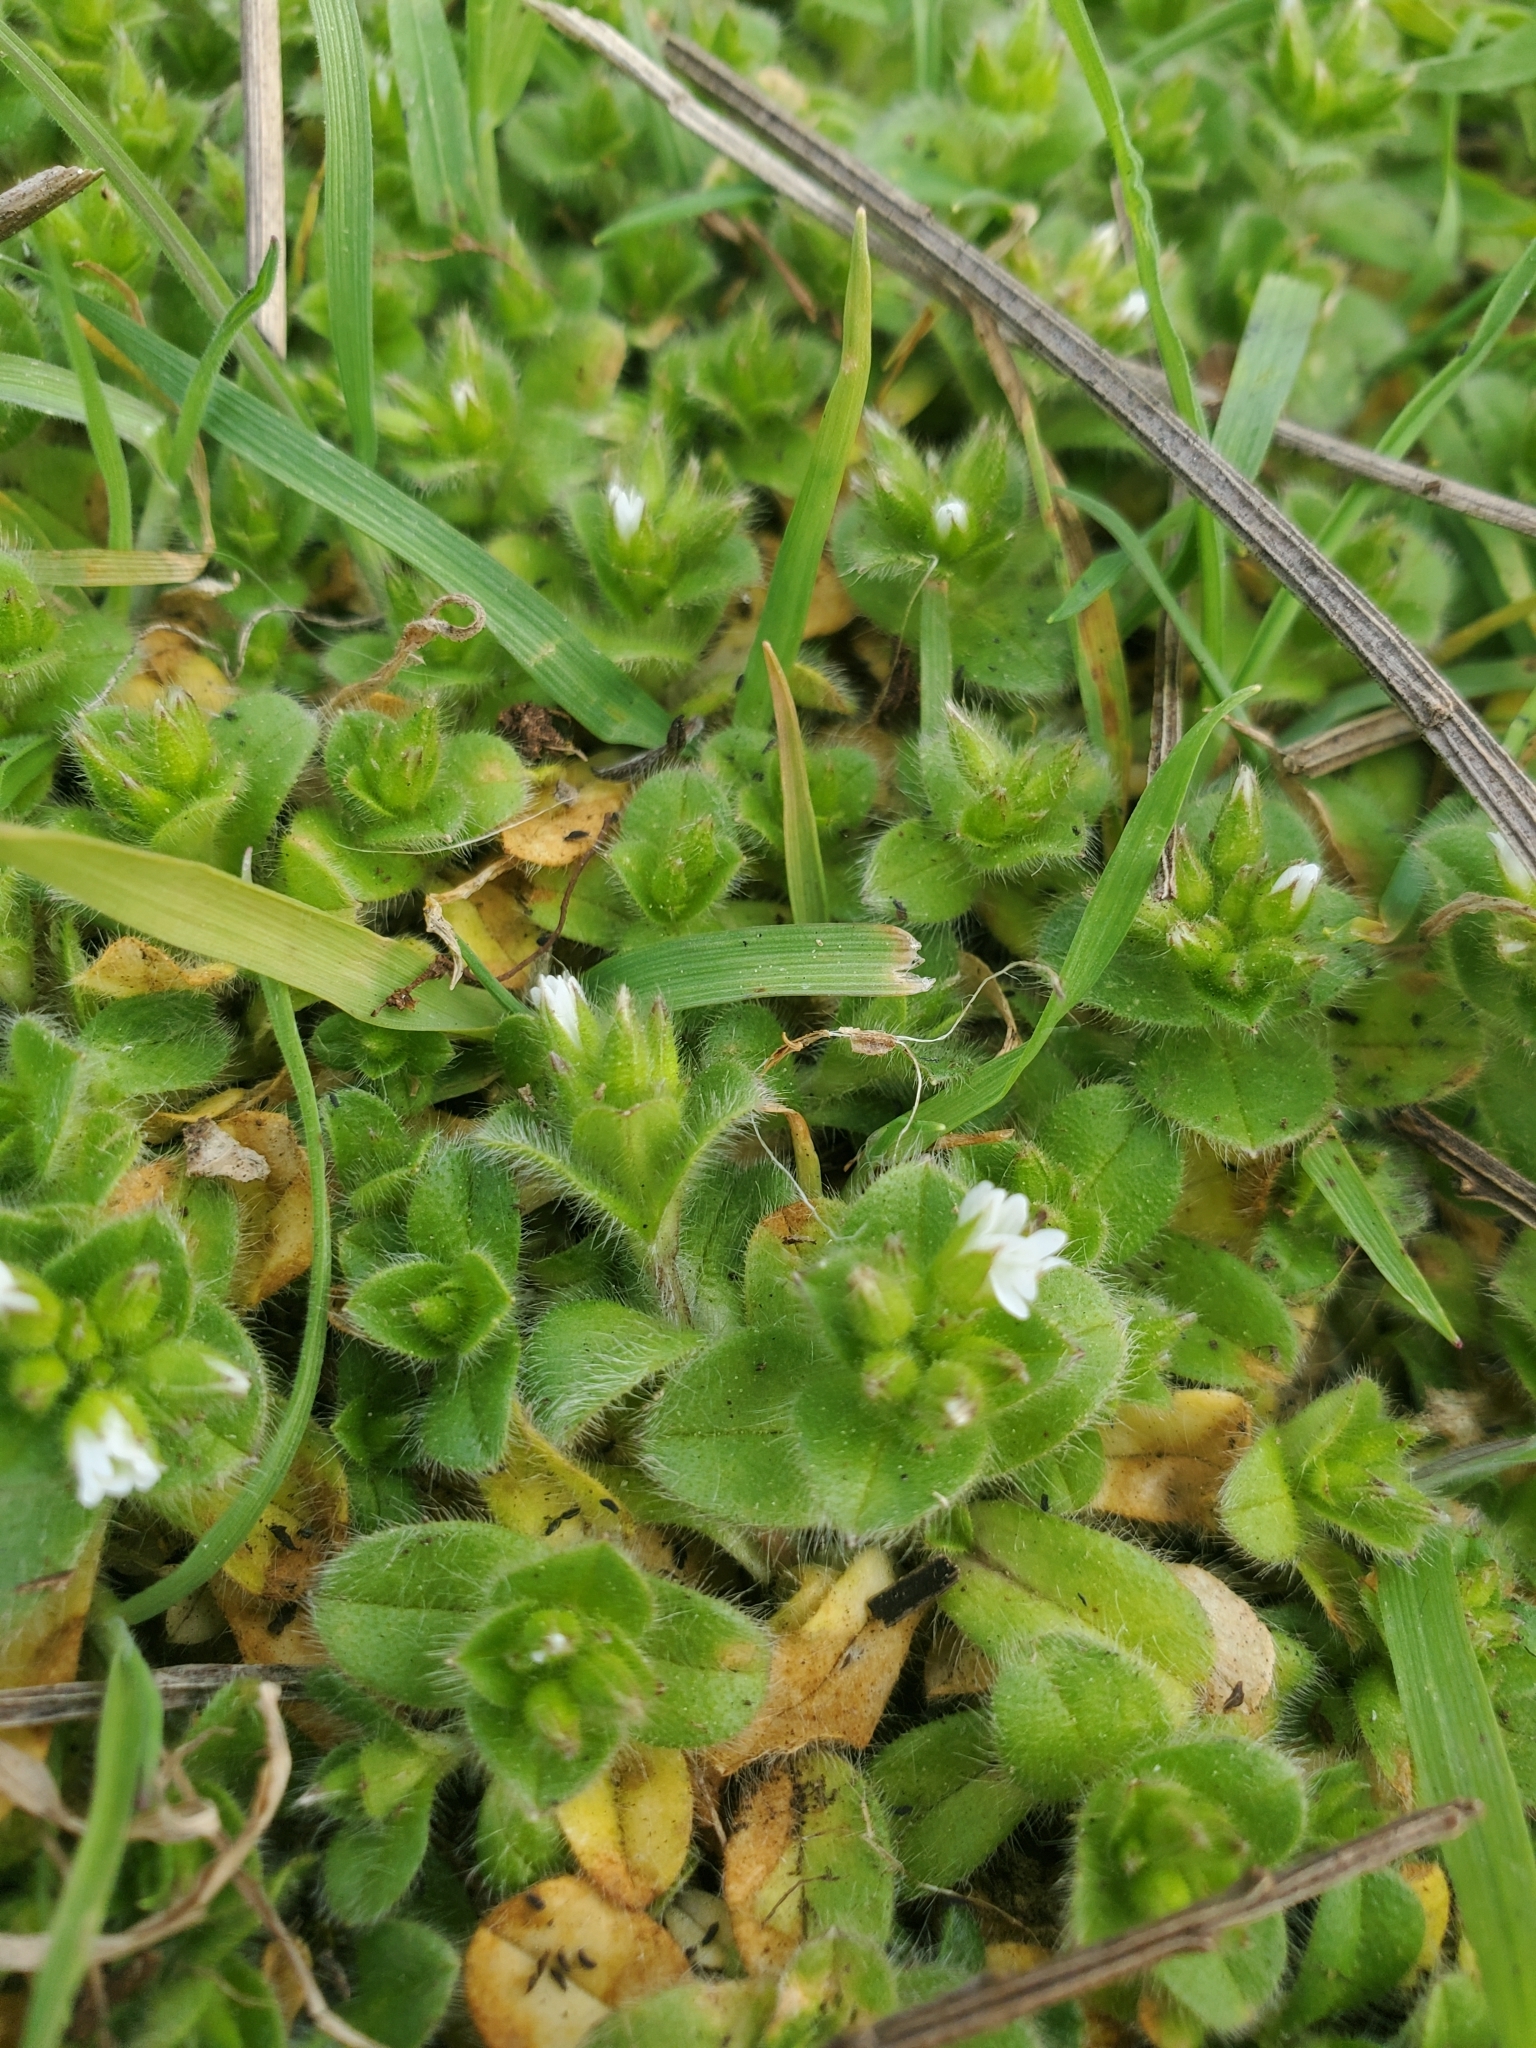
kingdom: Plantae
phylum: Tracheophyta
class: Magnoliopsida
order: Caryophyllales
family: Caryophyllaceae
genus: Cerastium
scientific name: Cerastium glomeratum
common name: Sticky chickweed
